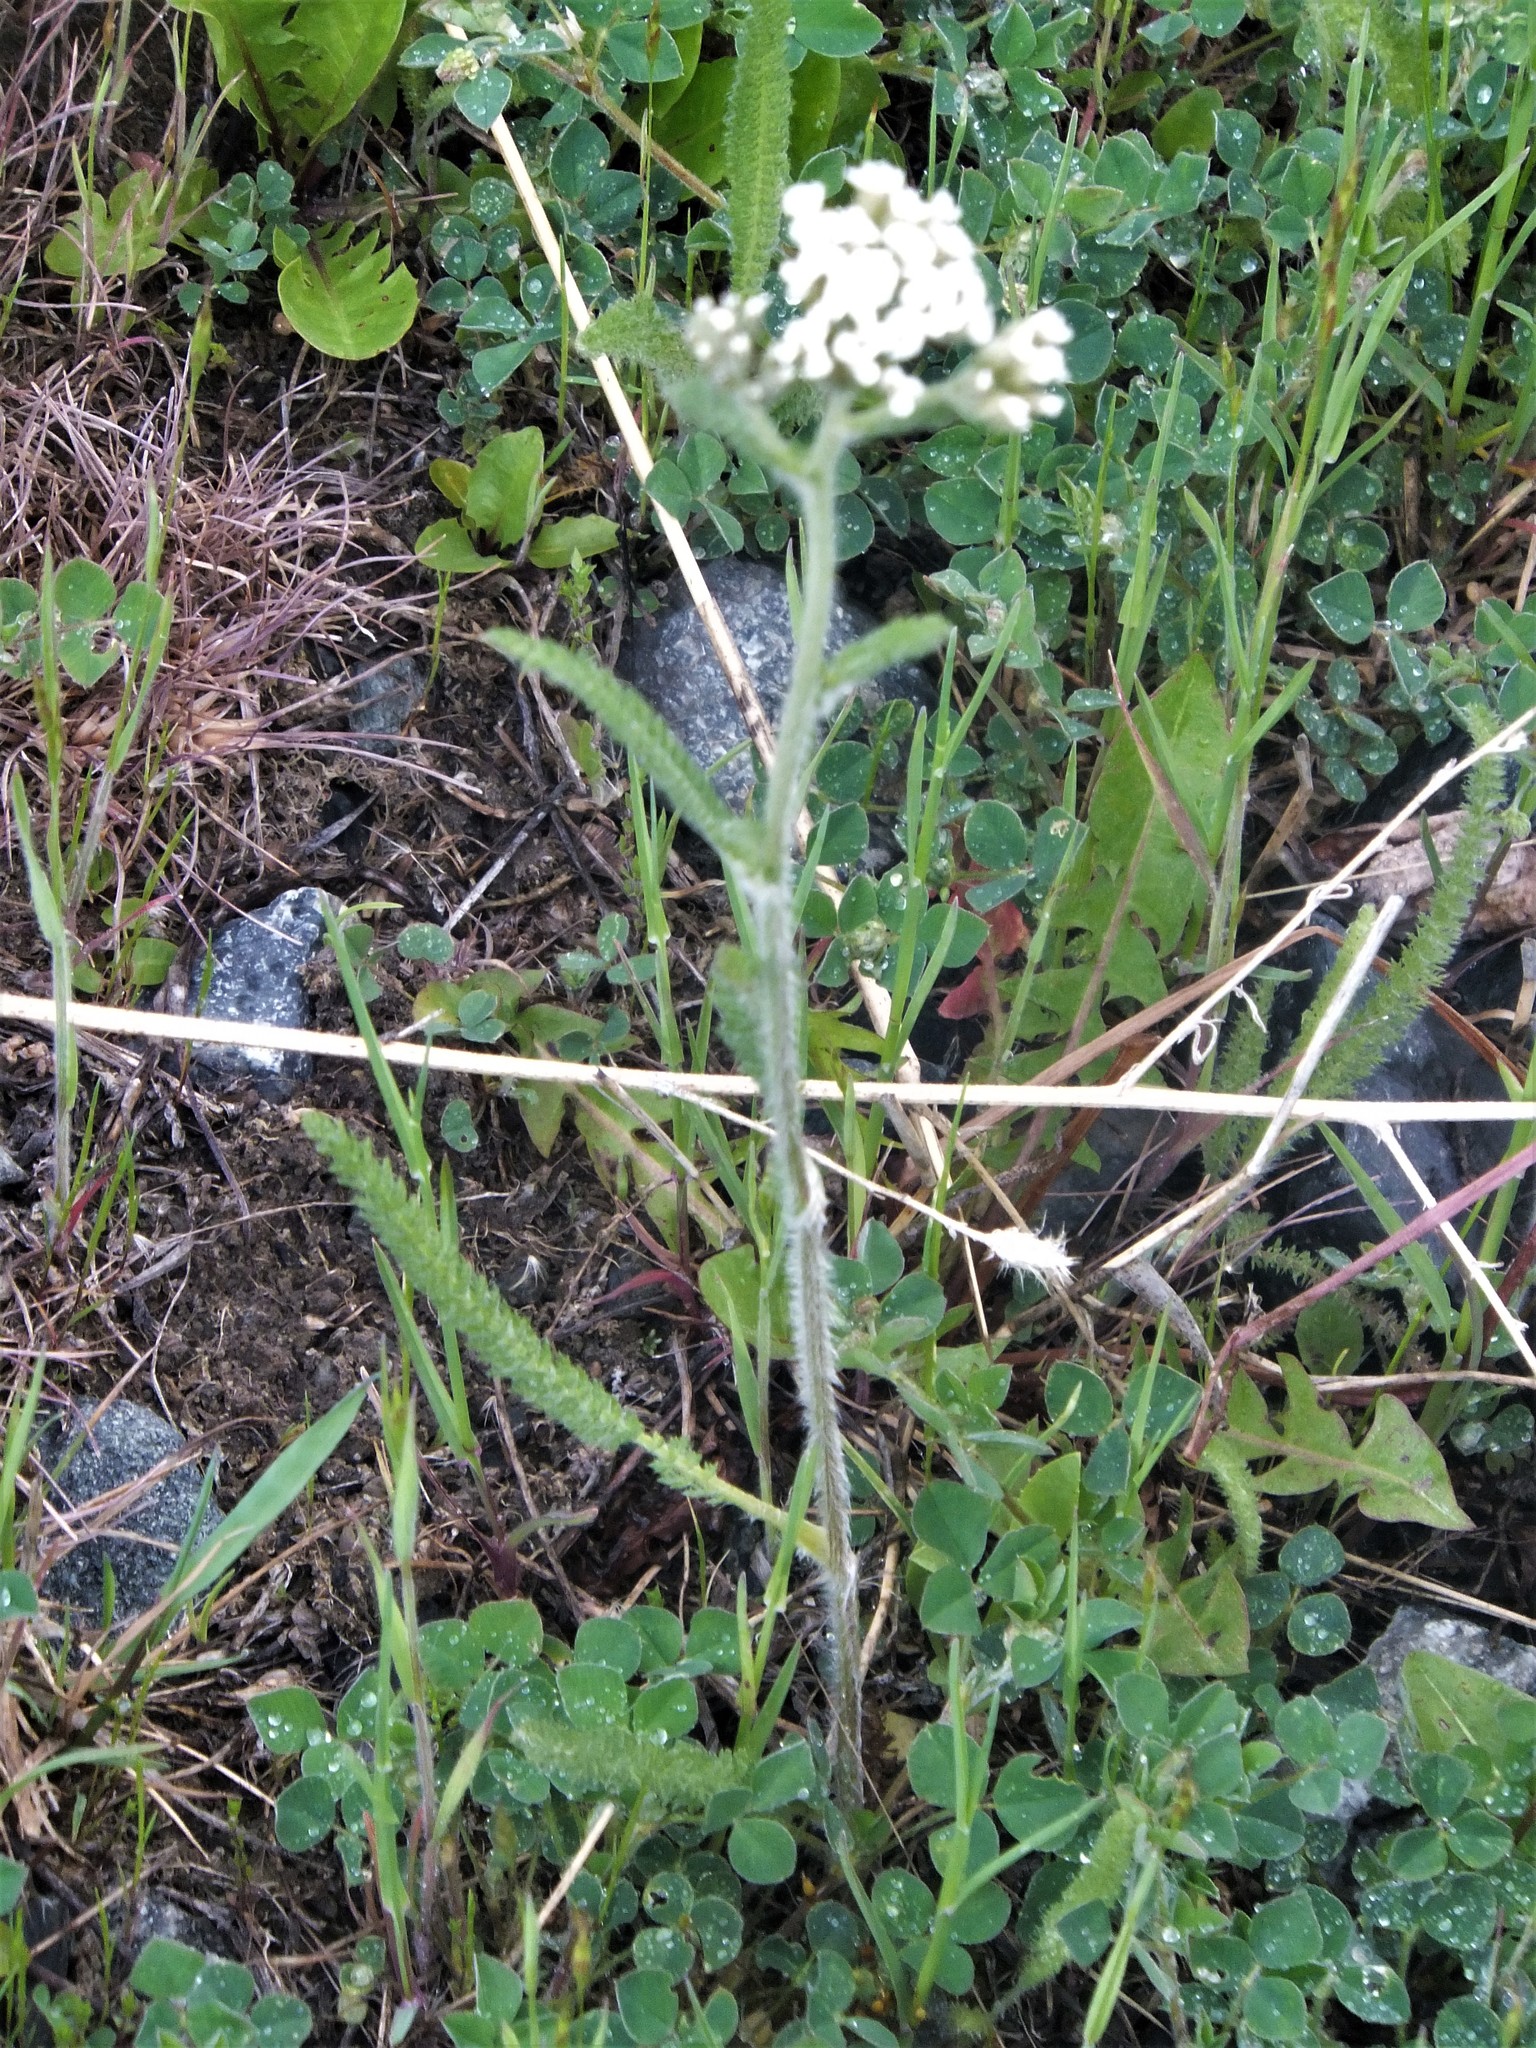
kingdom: Plantae
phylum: Tracheophyta
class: Magnoliopsida
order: Asterales
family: Asteraceae
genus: Achillea
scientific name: Achillea millefolium
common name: Yarrow
